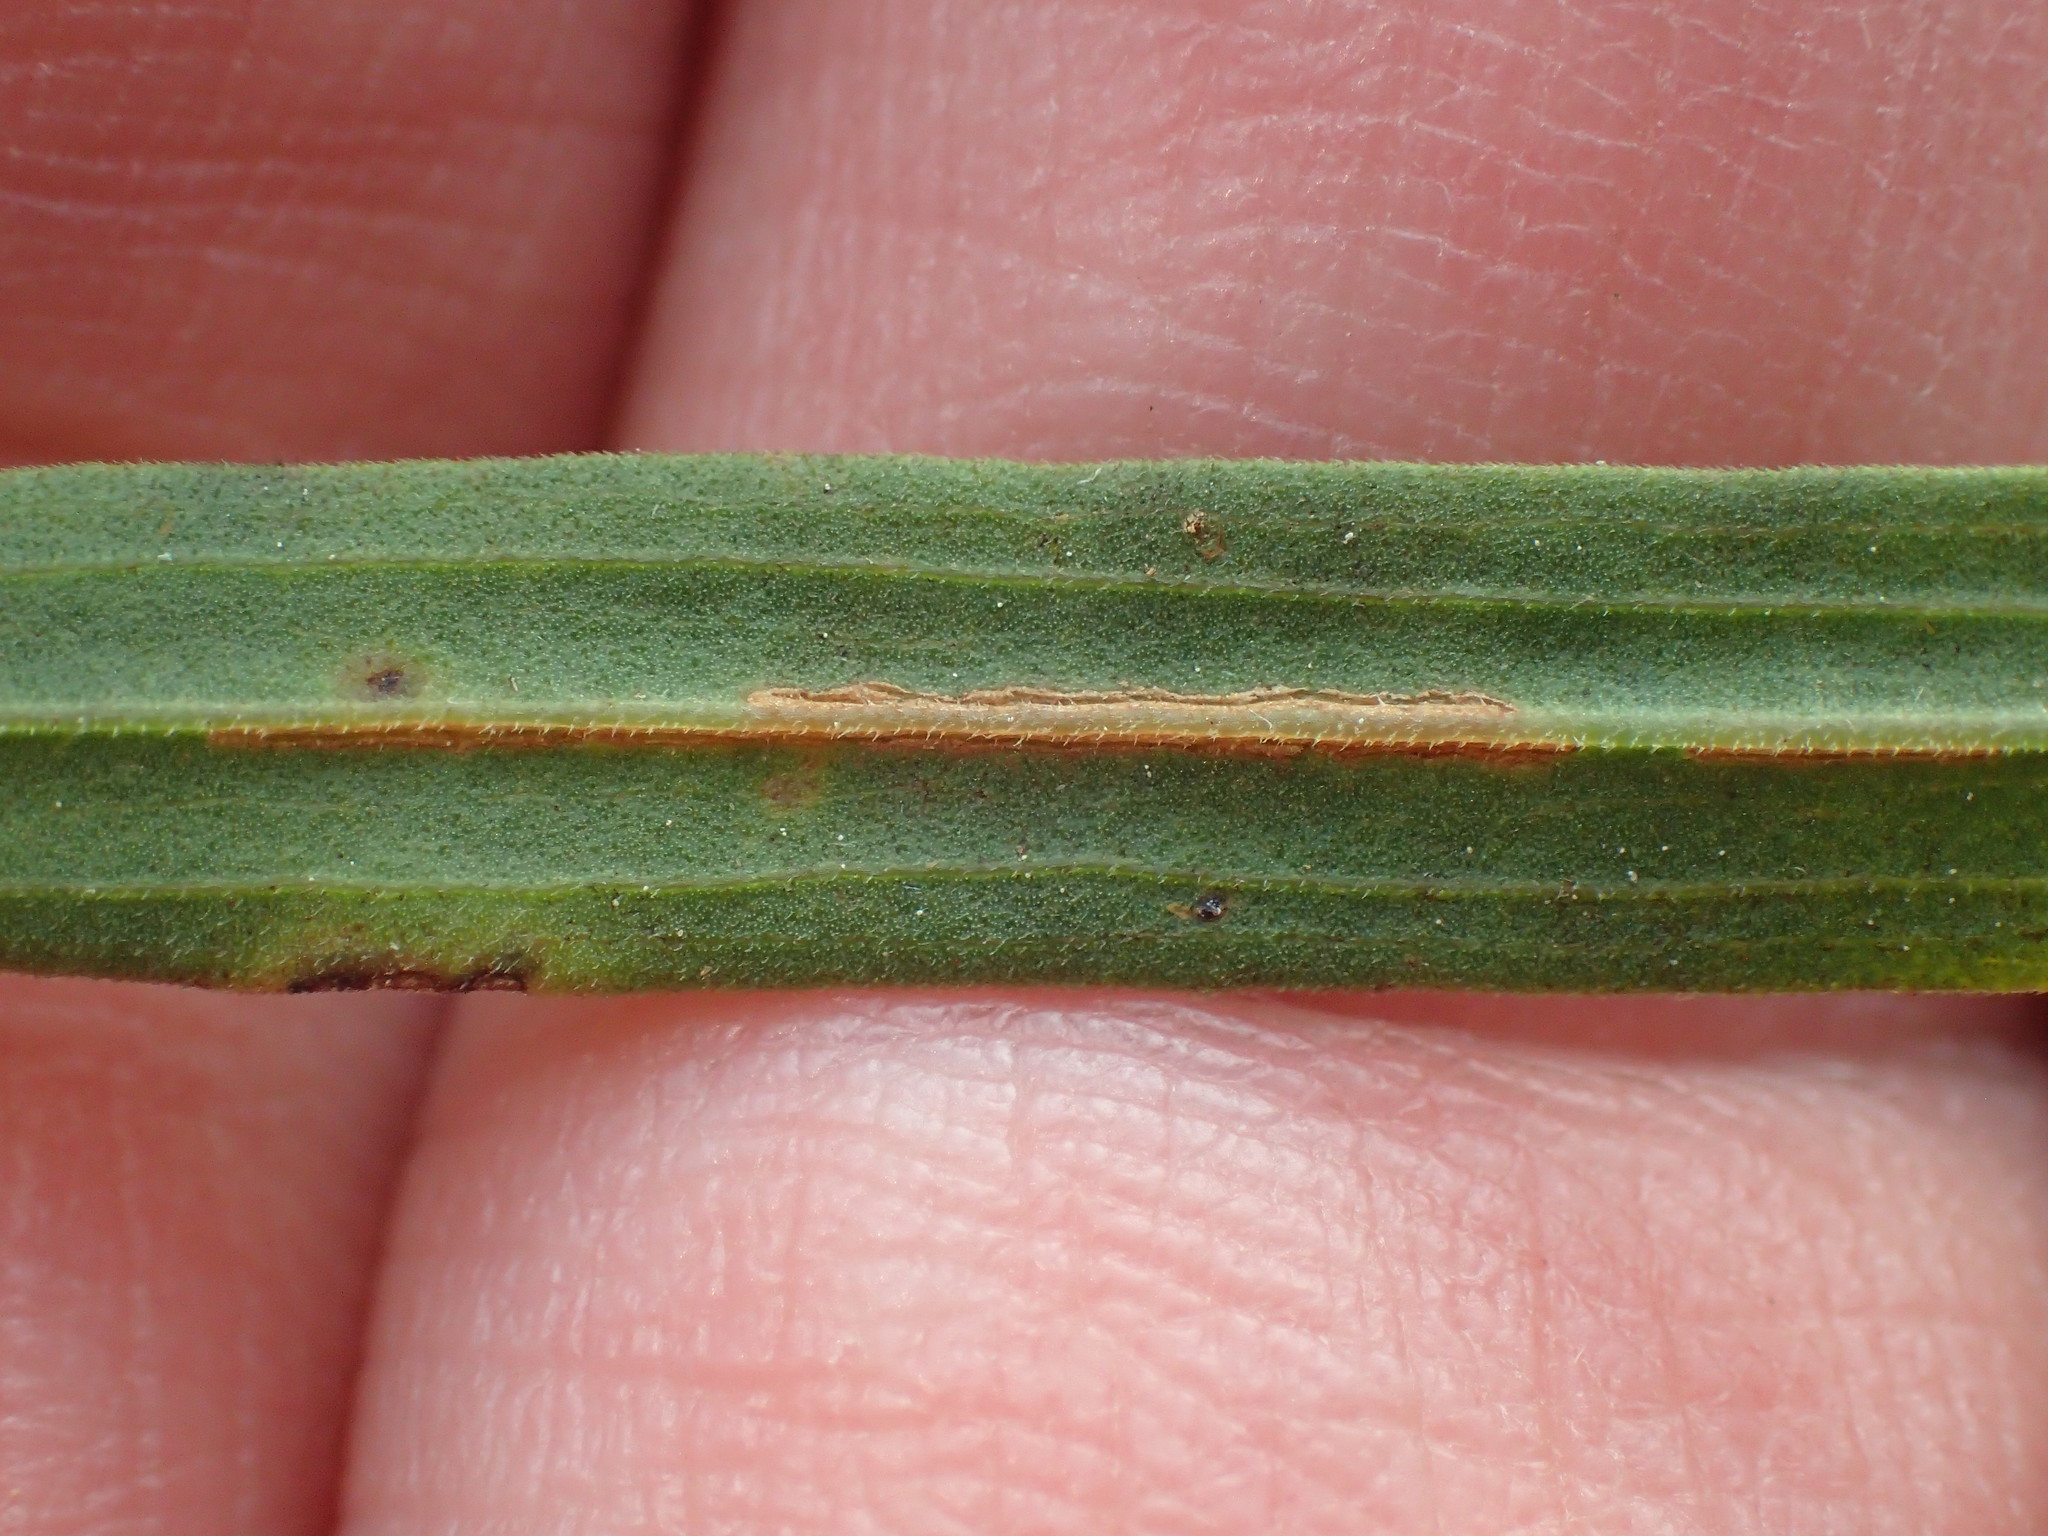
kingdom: Plantae
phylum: Tracheophyta
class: Magnoliopsida
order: Asterales
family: Asteraceae
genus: Euthamia
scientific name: Euthamia graminifolia
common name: Common goldentop
